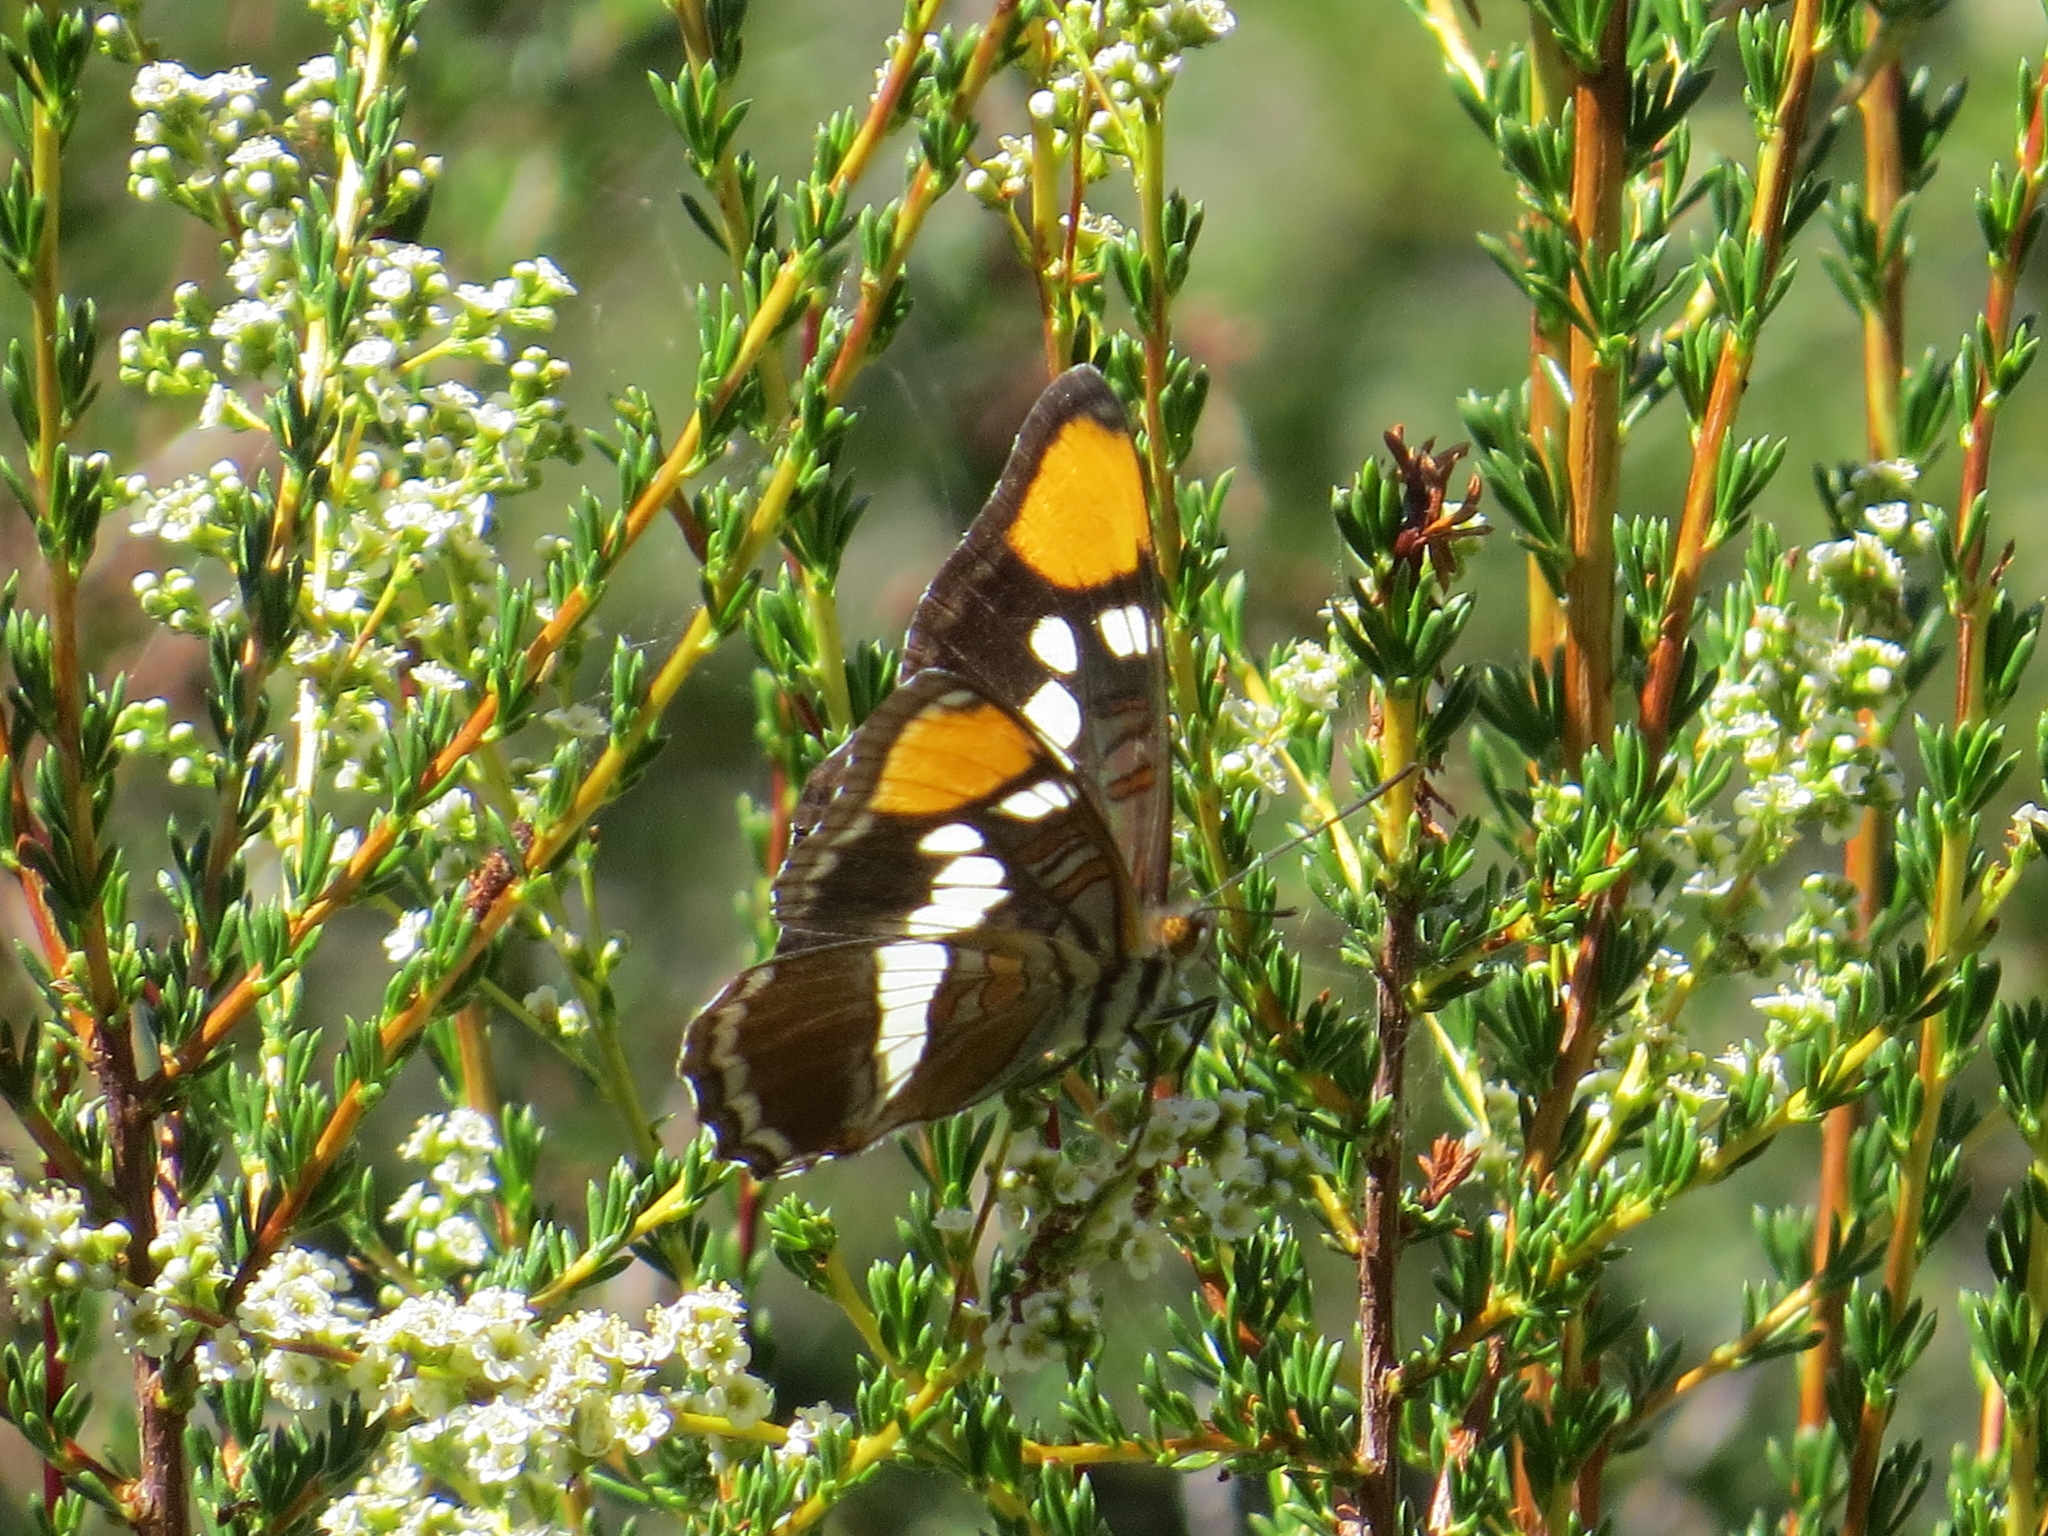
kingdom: Animalia
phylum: Arthropoda
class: Insecta
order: Lepidoptera
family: Nymphalidae
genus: Limenitis
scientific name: Limenitis bredowii
